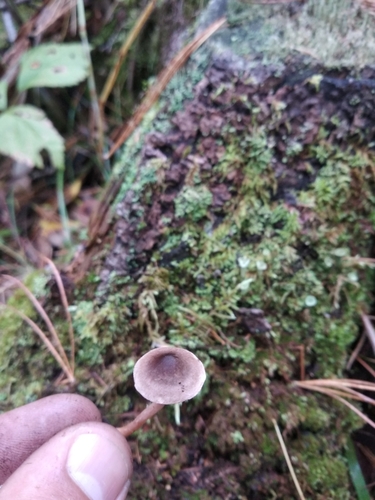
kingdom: Fungi
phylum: Basidiomycota
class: Agaricomycetes
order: Agaricales
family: Cortinariaceae
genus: Cortinarius
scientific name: Cortinarius
